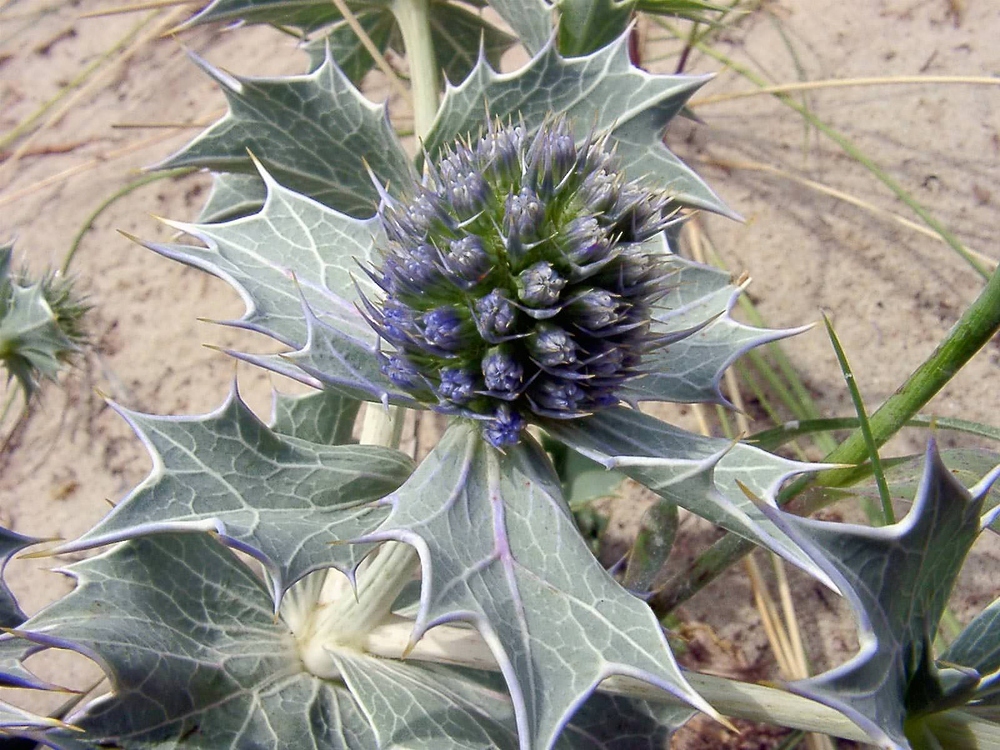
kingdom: Plantae
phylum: Tracheophyta
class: Magnoliopsida
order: Apiales
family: Apiaceae
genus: Eryngium
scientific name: Eryngium maritimum
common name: Sea-holly
